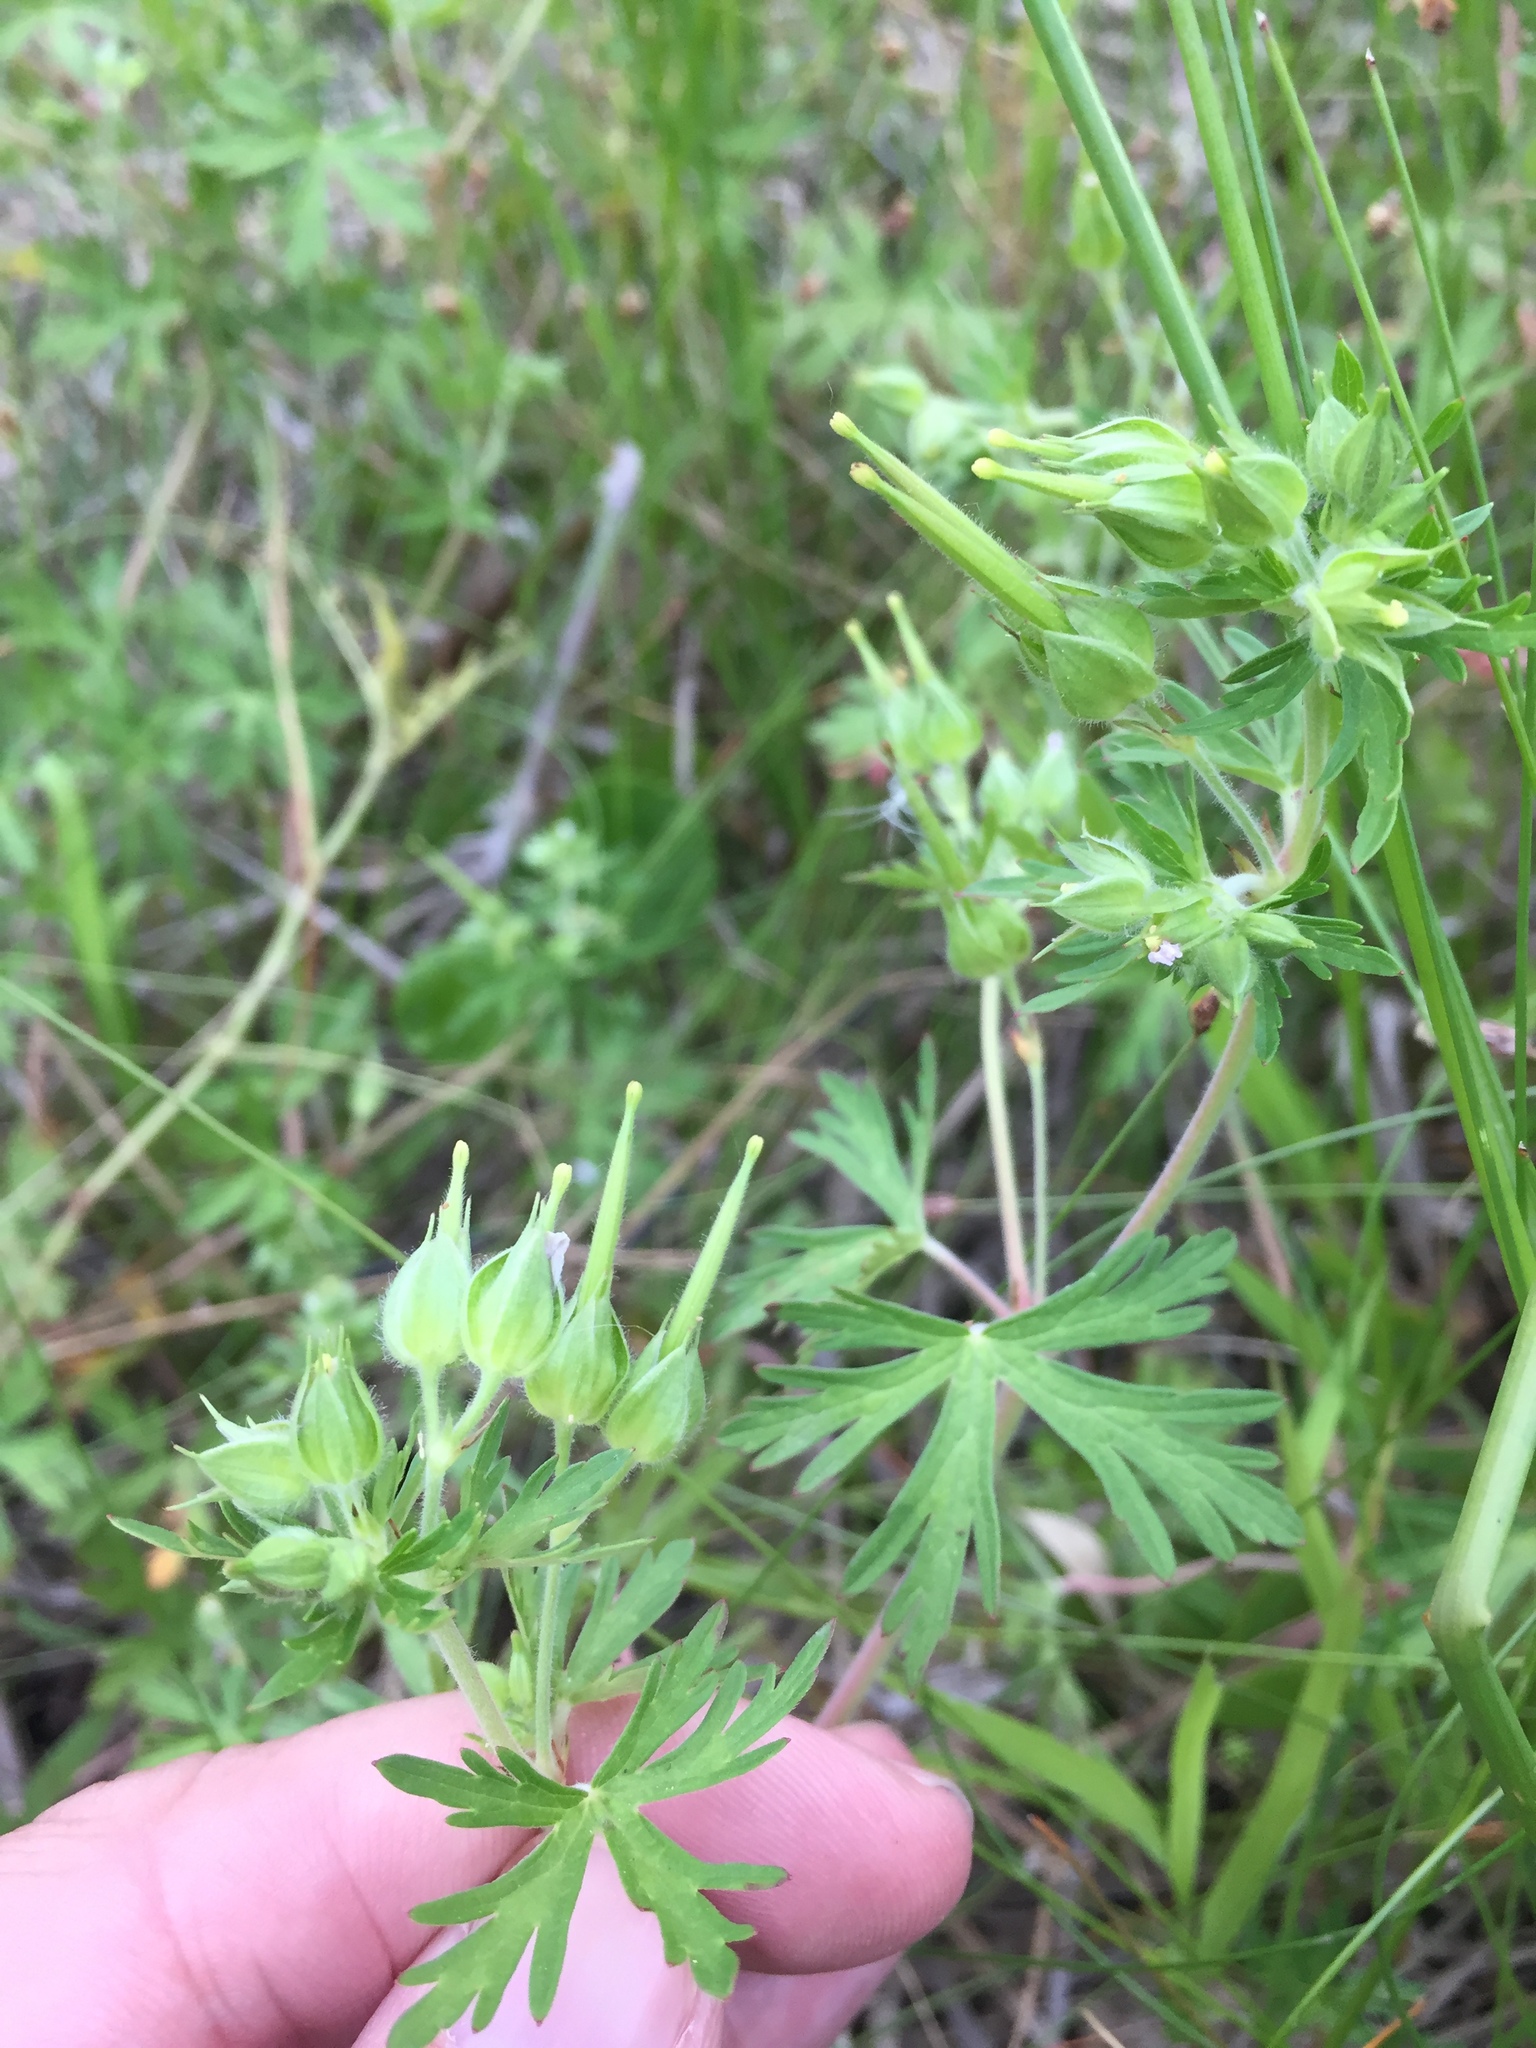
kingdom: Plantae
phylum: Tracheophyta
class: Magnoliopsida
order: Geraniales
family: Geraniaceae
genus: Geranium
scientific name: Geranium carolinianum
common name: Carolina crane's-bill
